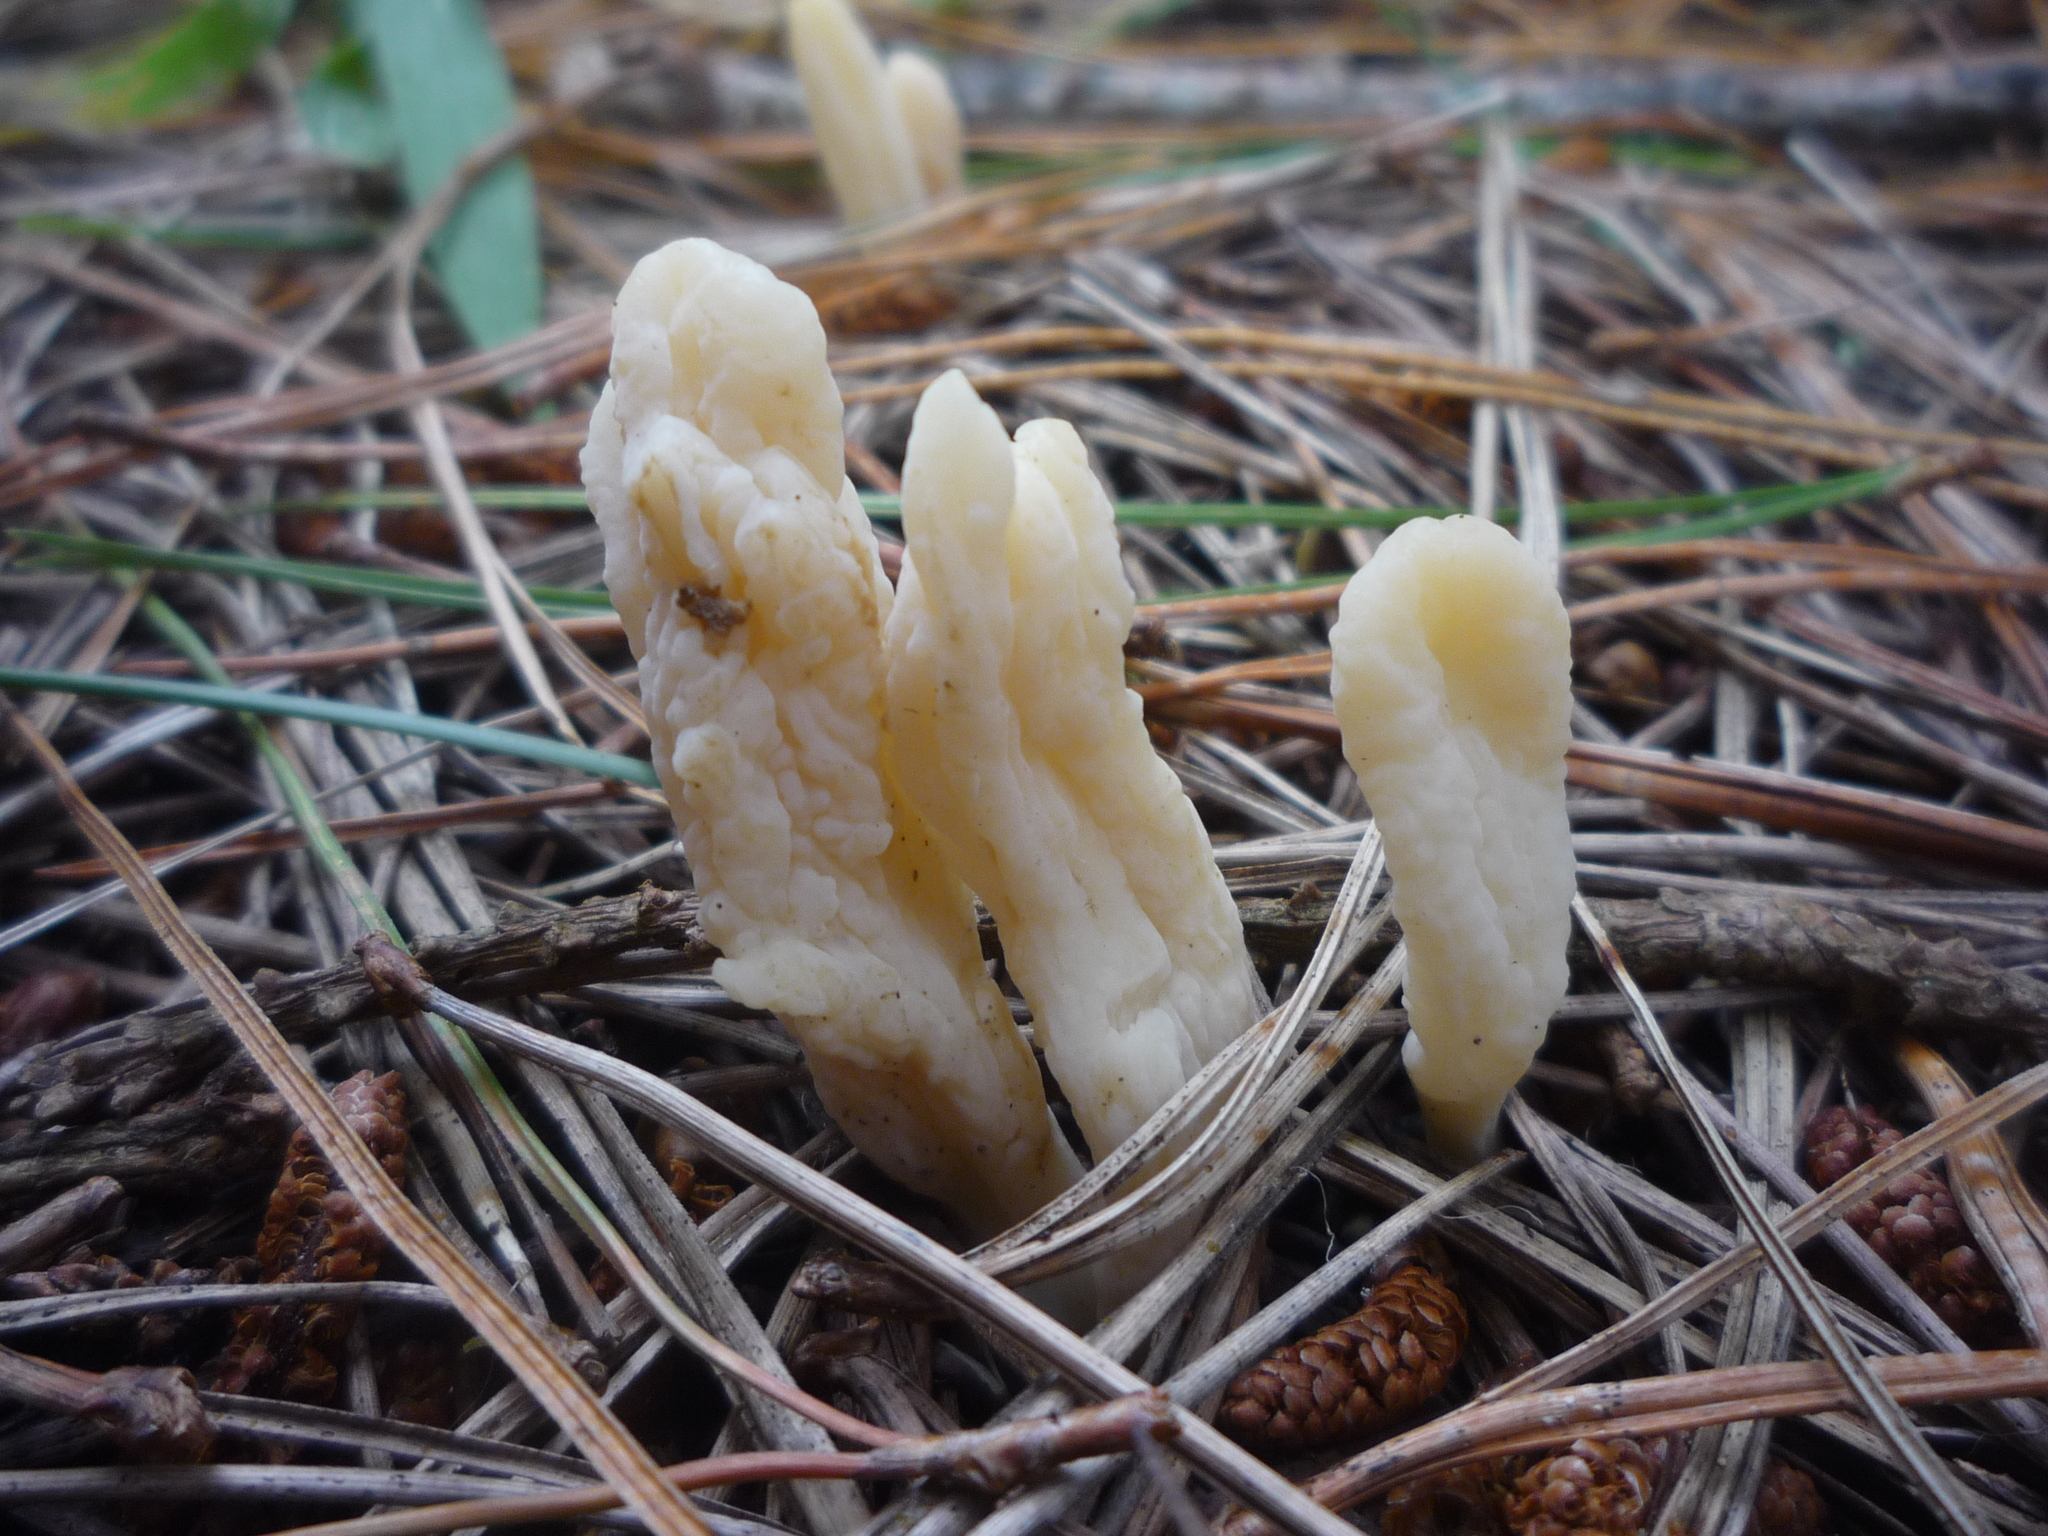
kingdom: Fungi
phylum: Basidiomycota
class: Agaricomycetes
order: Cantharellales
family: Hydnaceae
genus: Clavulina
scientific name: Clavulina rugosa
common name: Wrinkled club
